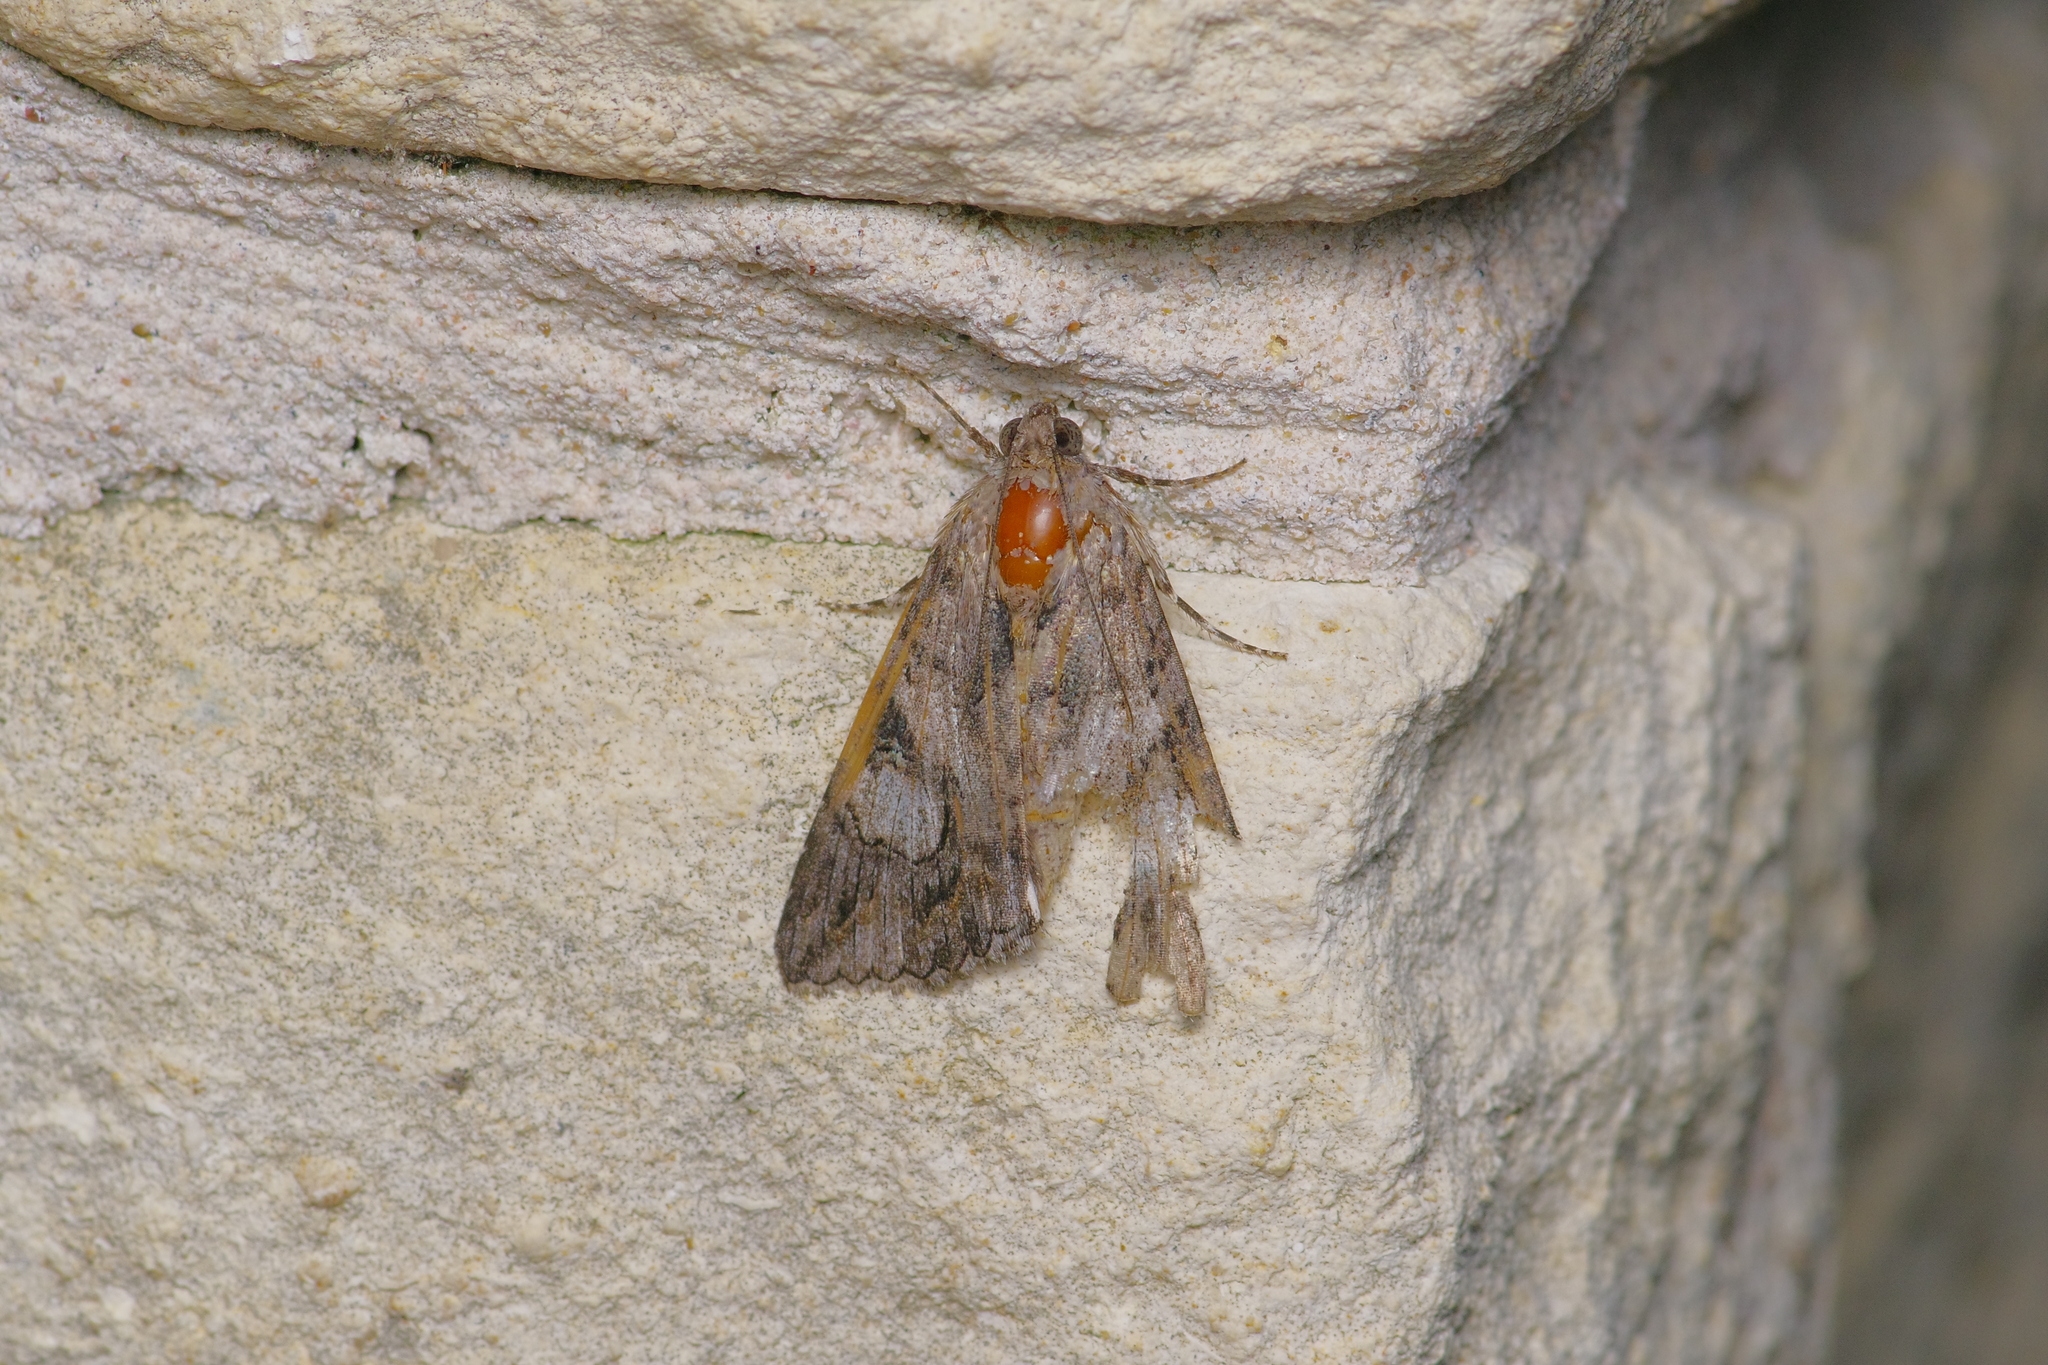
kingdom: Animalia
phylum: Arthropoda
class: Insecta
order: Lepidoptera
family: Erebidae
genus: Melipotis
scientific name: Melipotis jucunda
